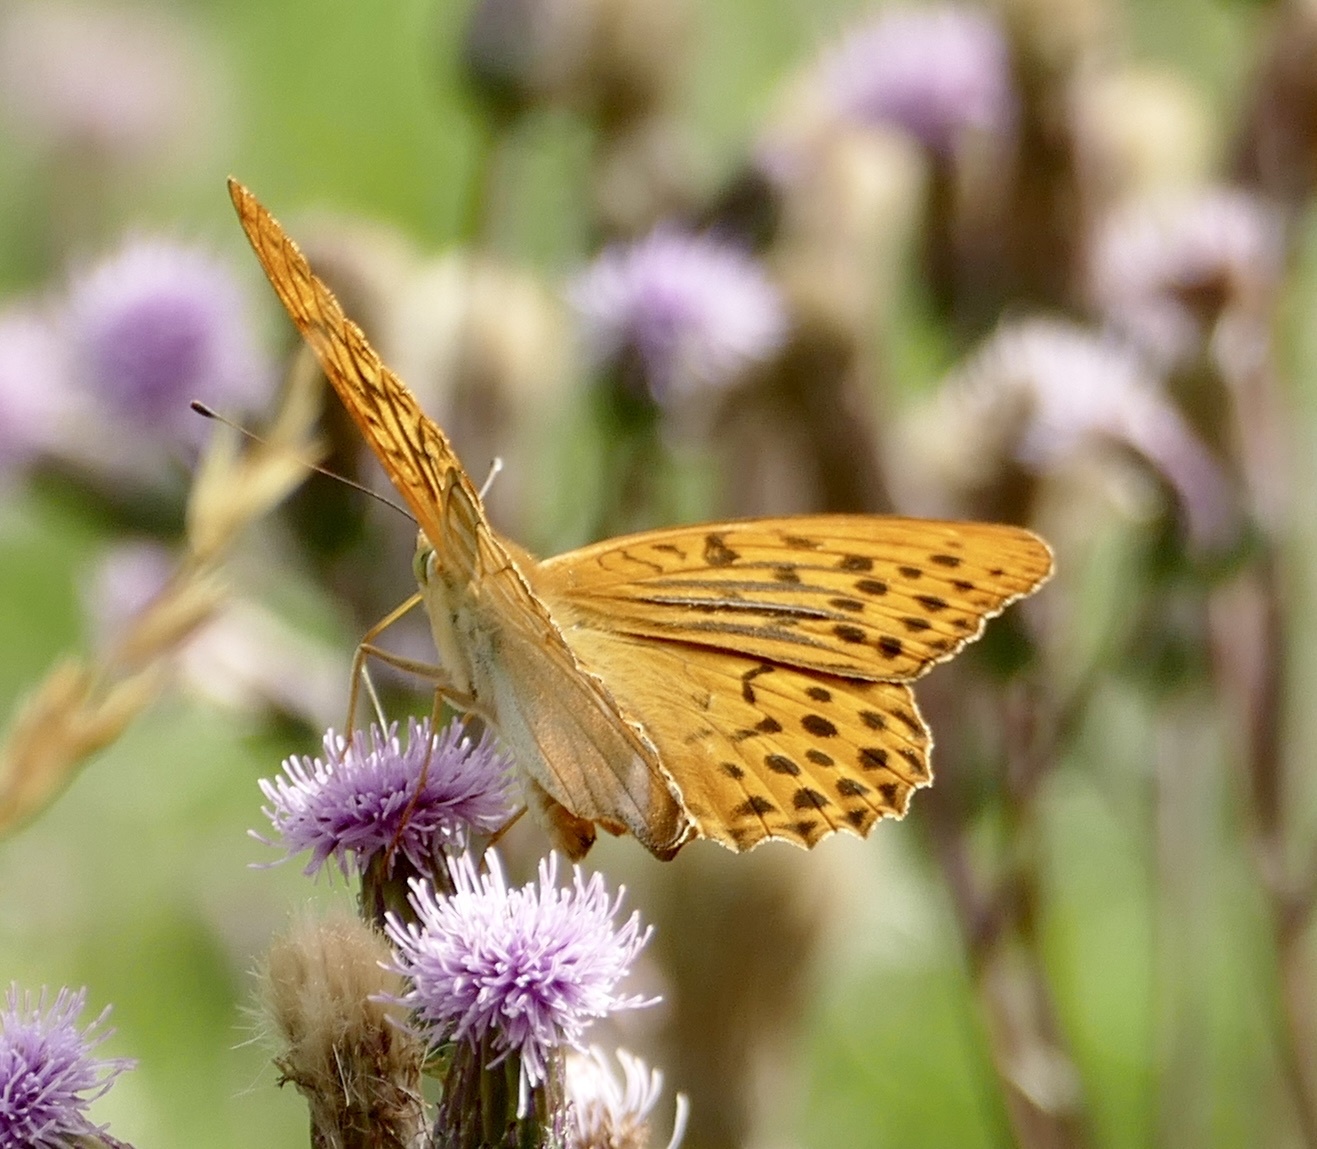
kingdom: Animalia
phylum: Arthropoda
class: Insecta
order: Lepidoptera
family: Nymphalidae
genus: Argynnis
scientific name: Argynnis paphia
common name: Silver-washed fritillary
